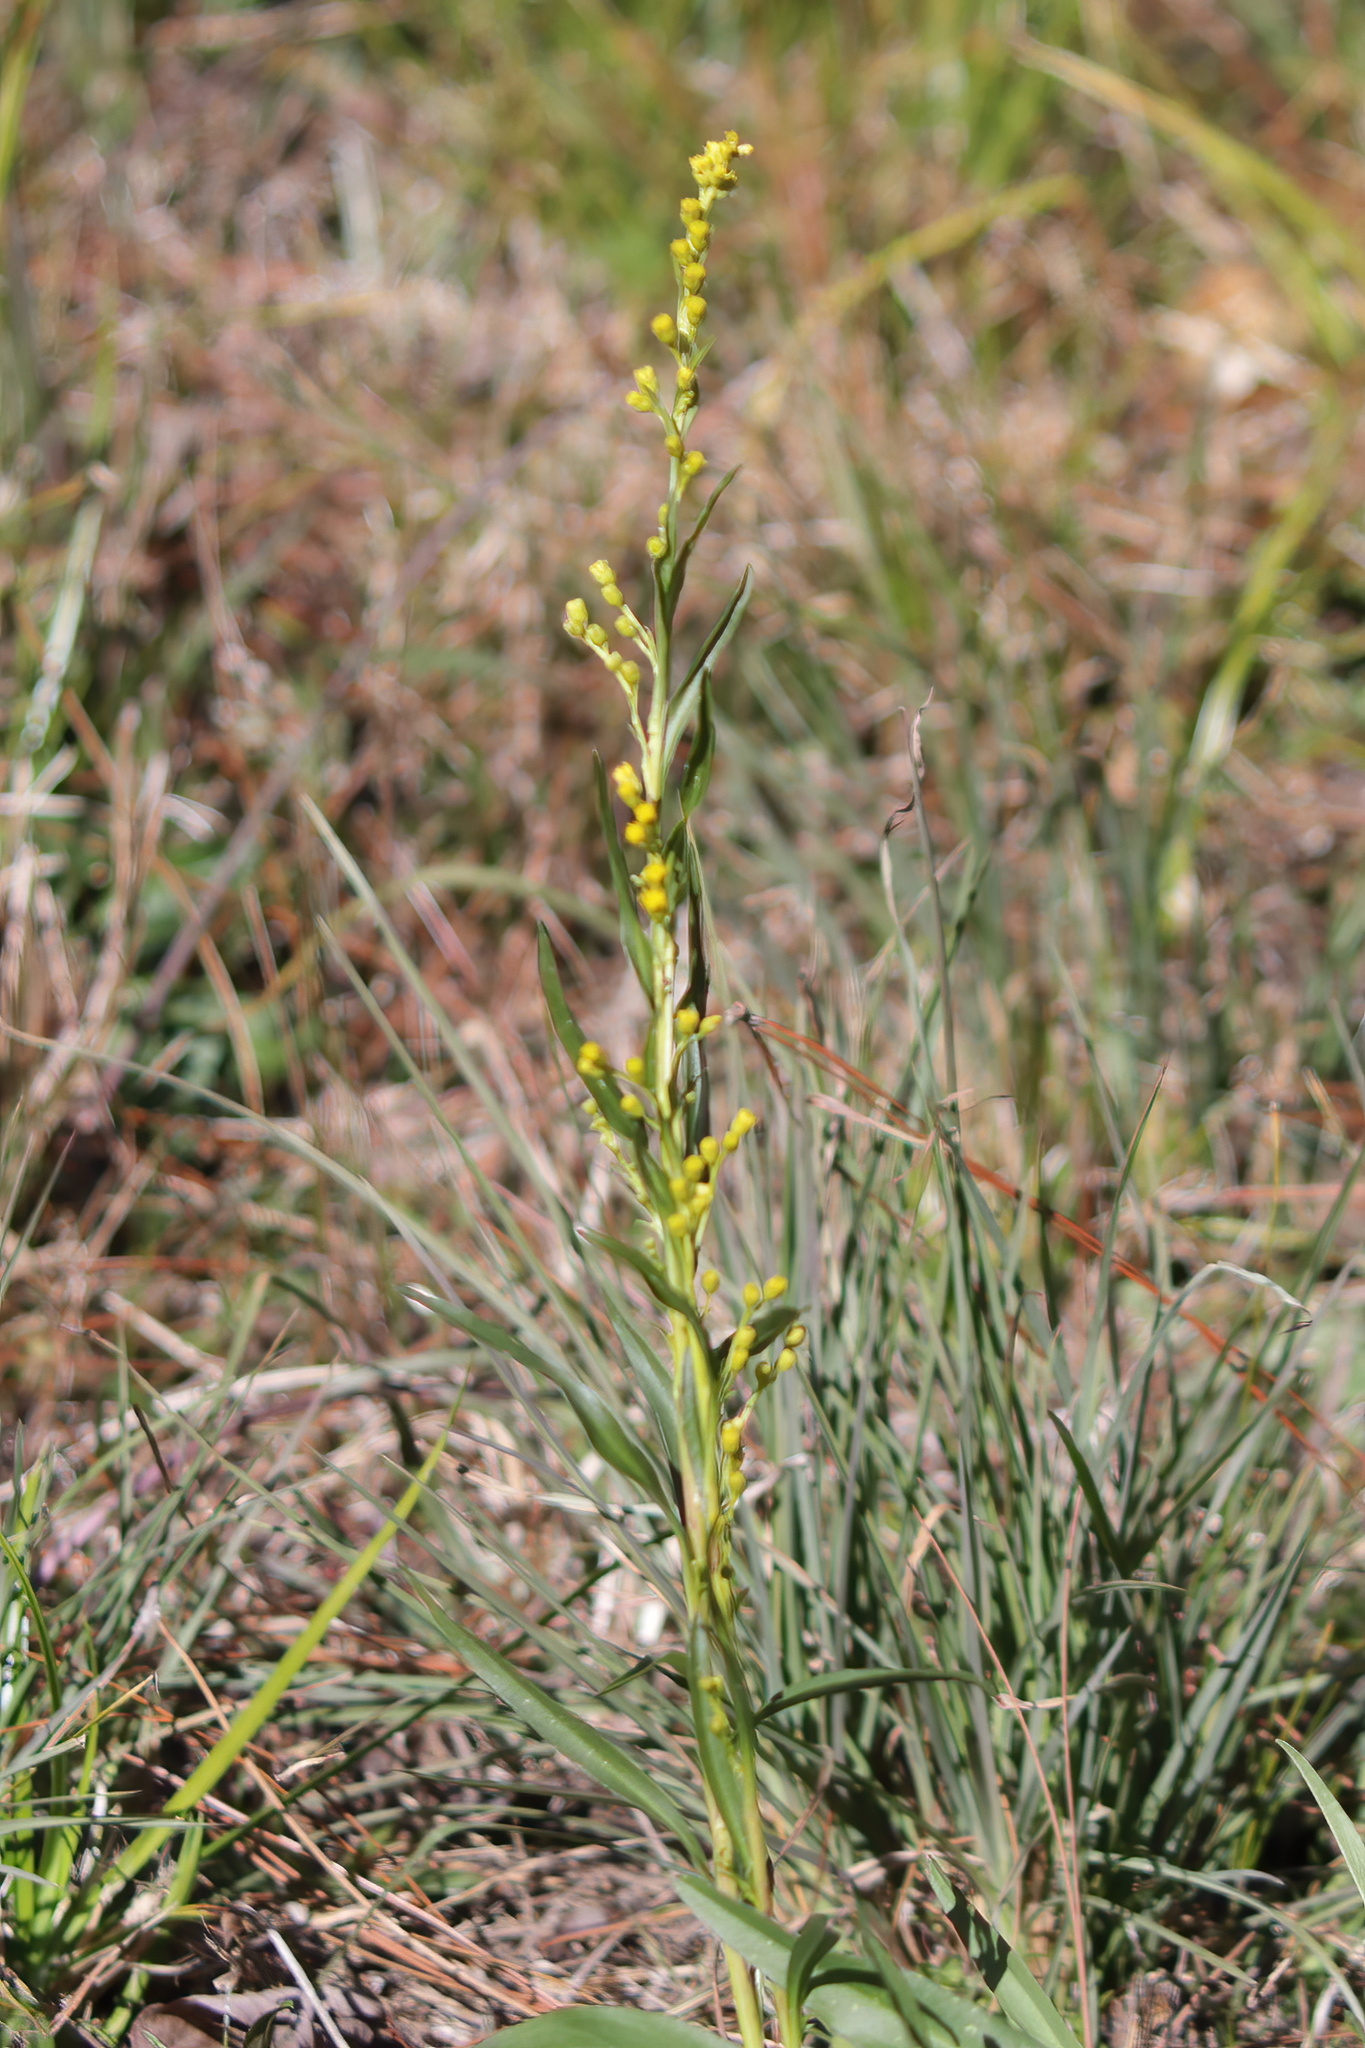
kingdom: Plantae
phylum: Tracheophyta
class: Magnoliopsida
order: Asterales
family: Asteraceae
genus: Solidago
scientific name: Solidago mexicana
